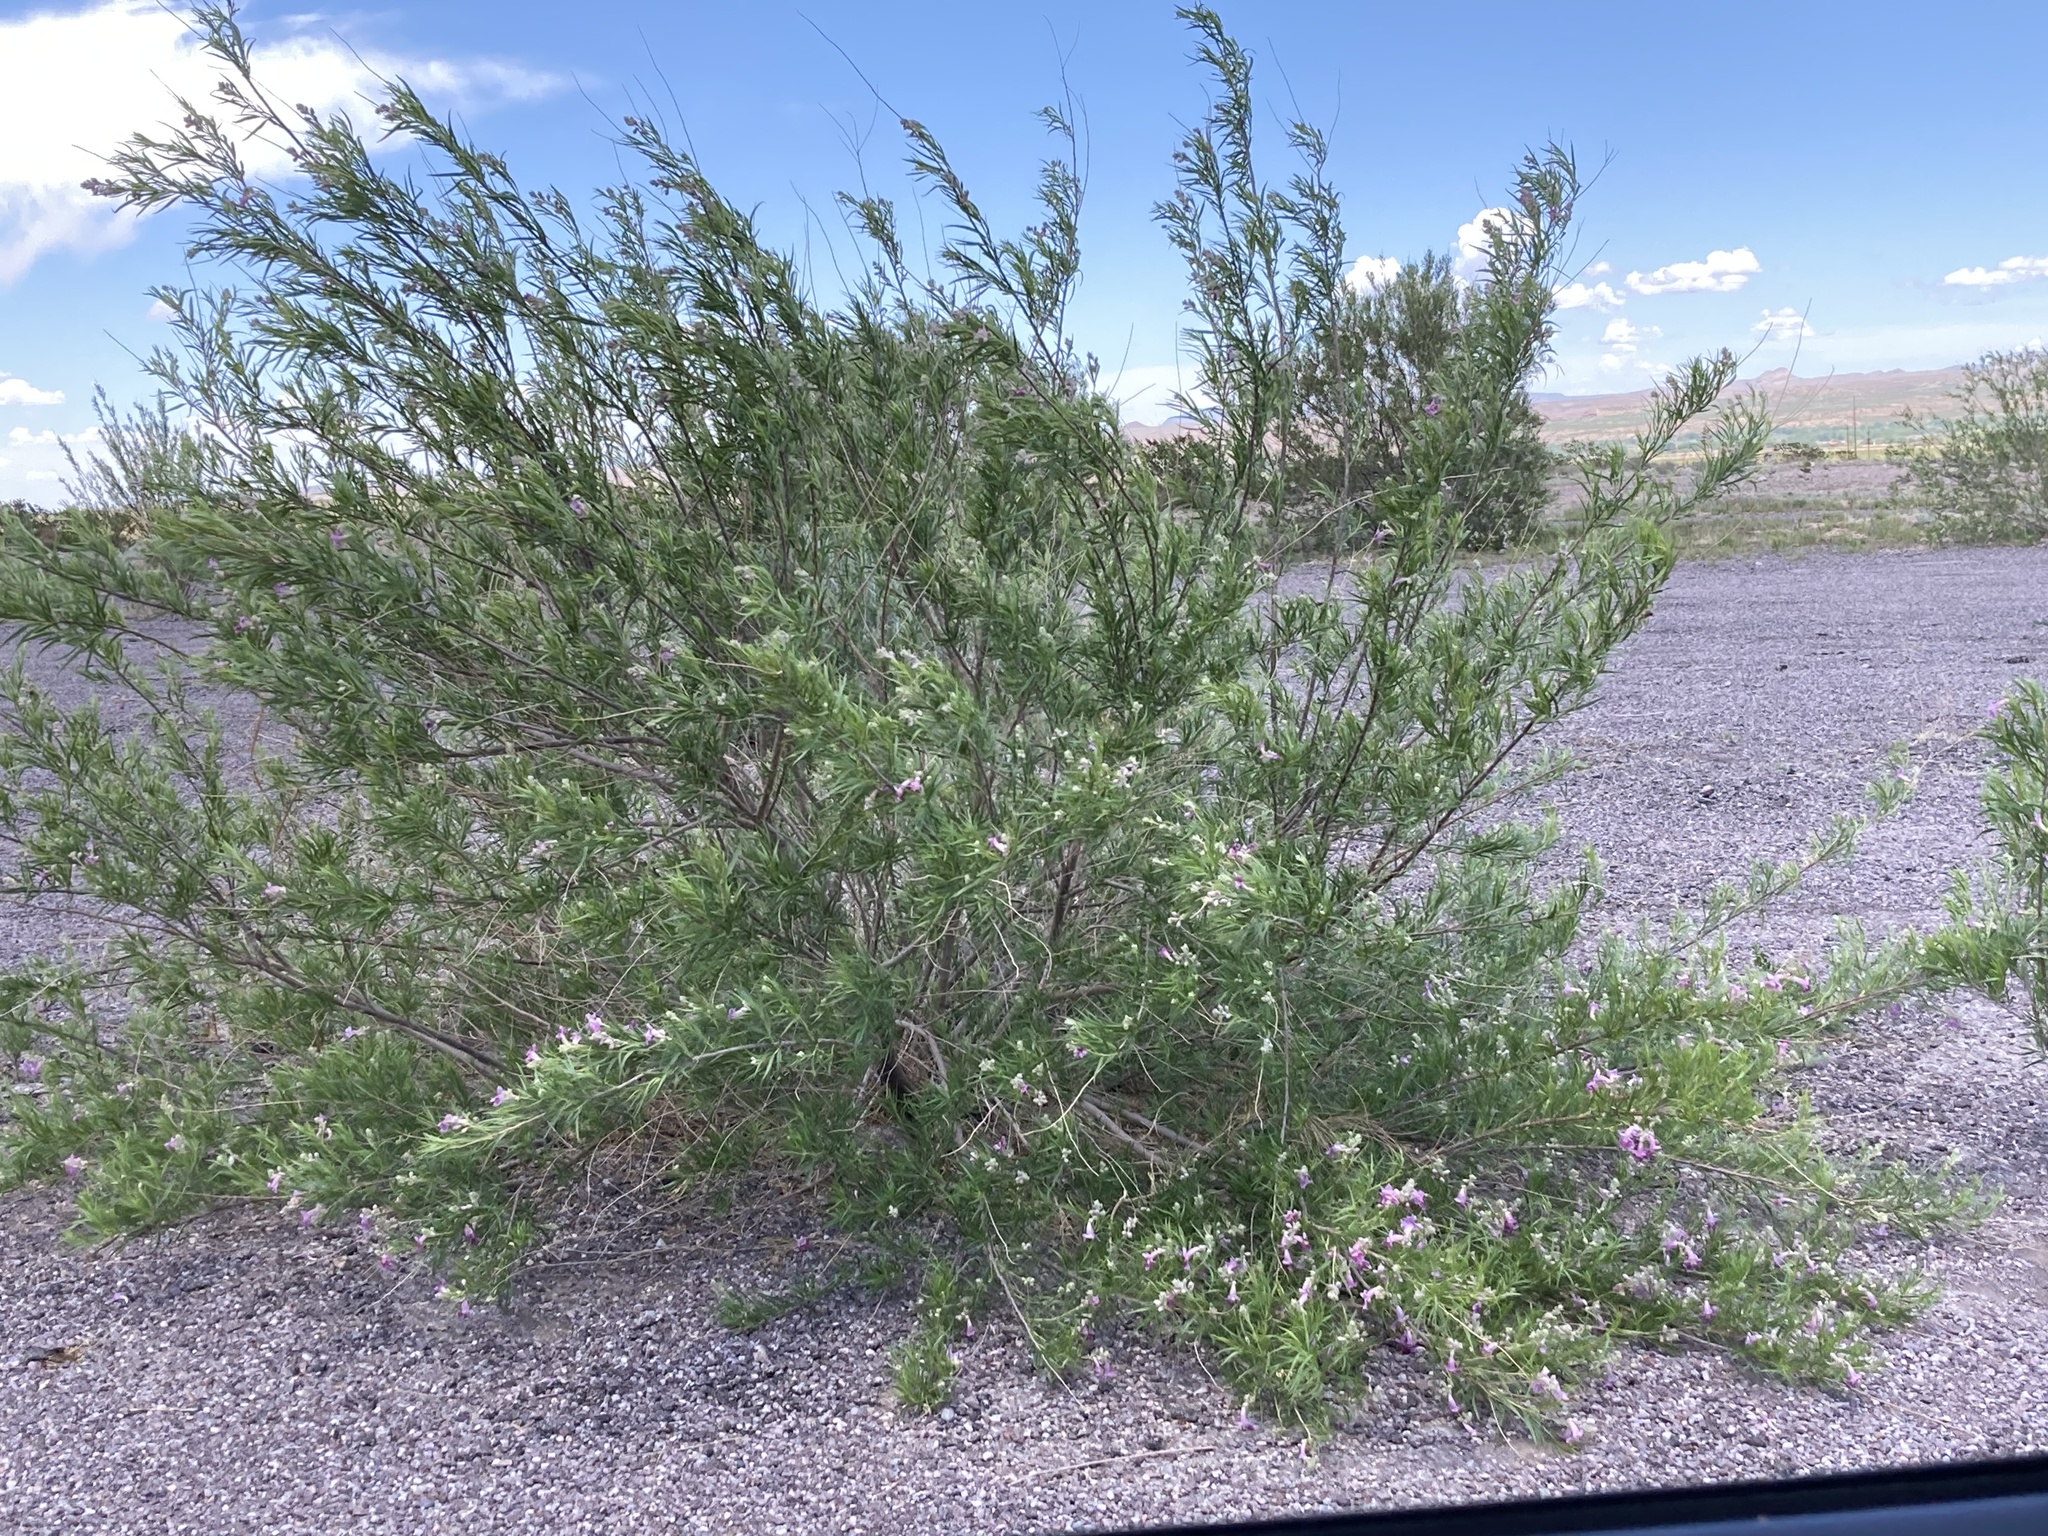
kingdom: Plantae
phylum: Tracheophyta
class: Magnoliopsida
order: Lamiales
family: Bignoniaceae
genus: Chilopsis
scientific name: Chilopsis linearis
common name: Desert-willow
